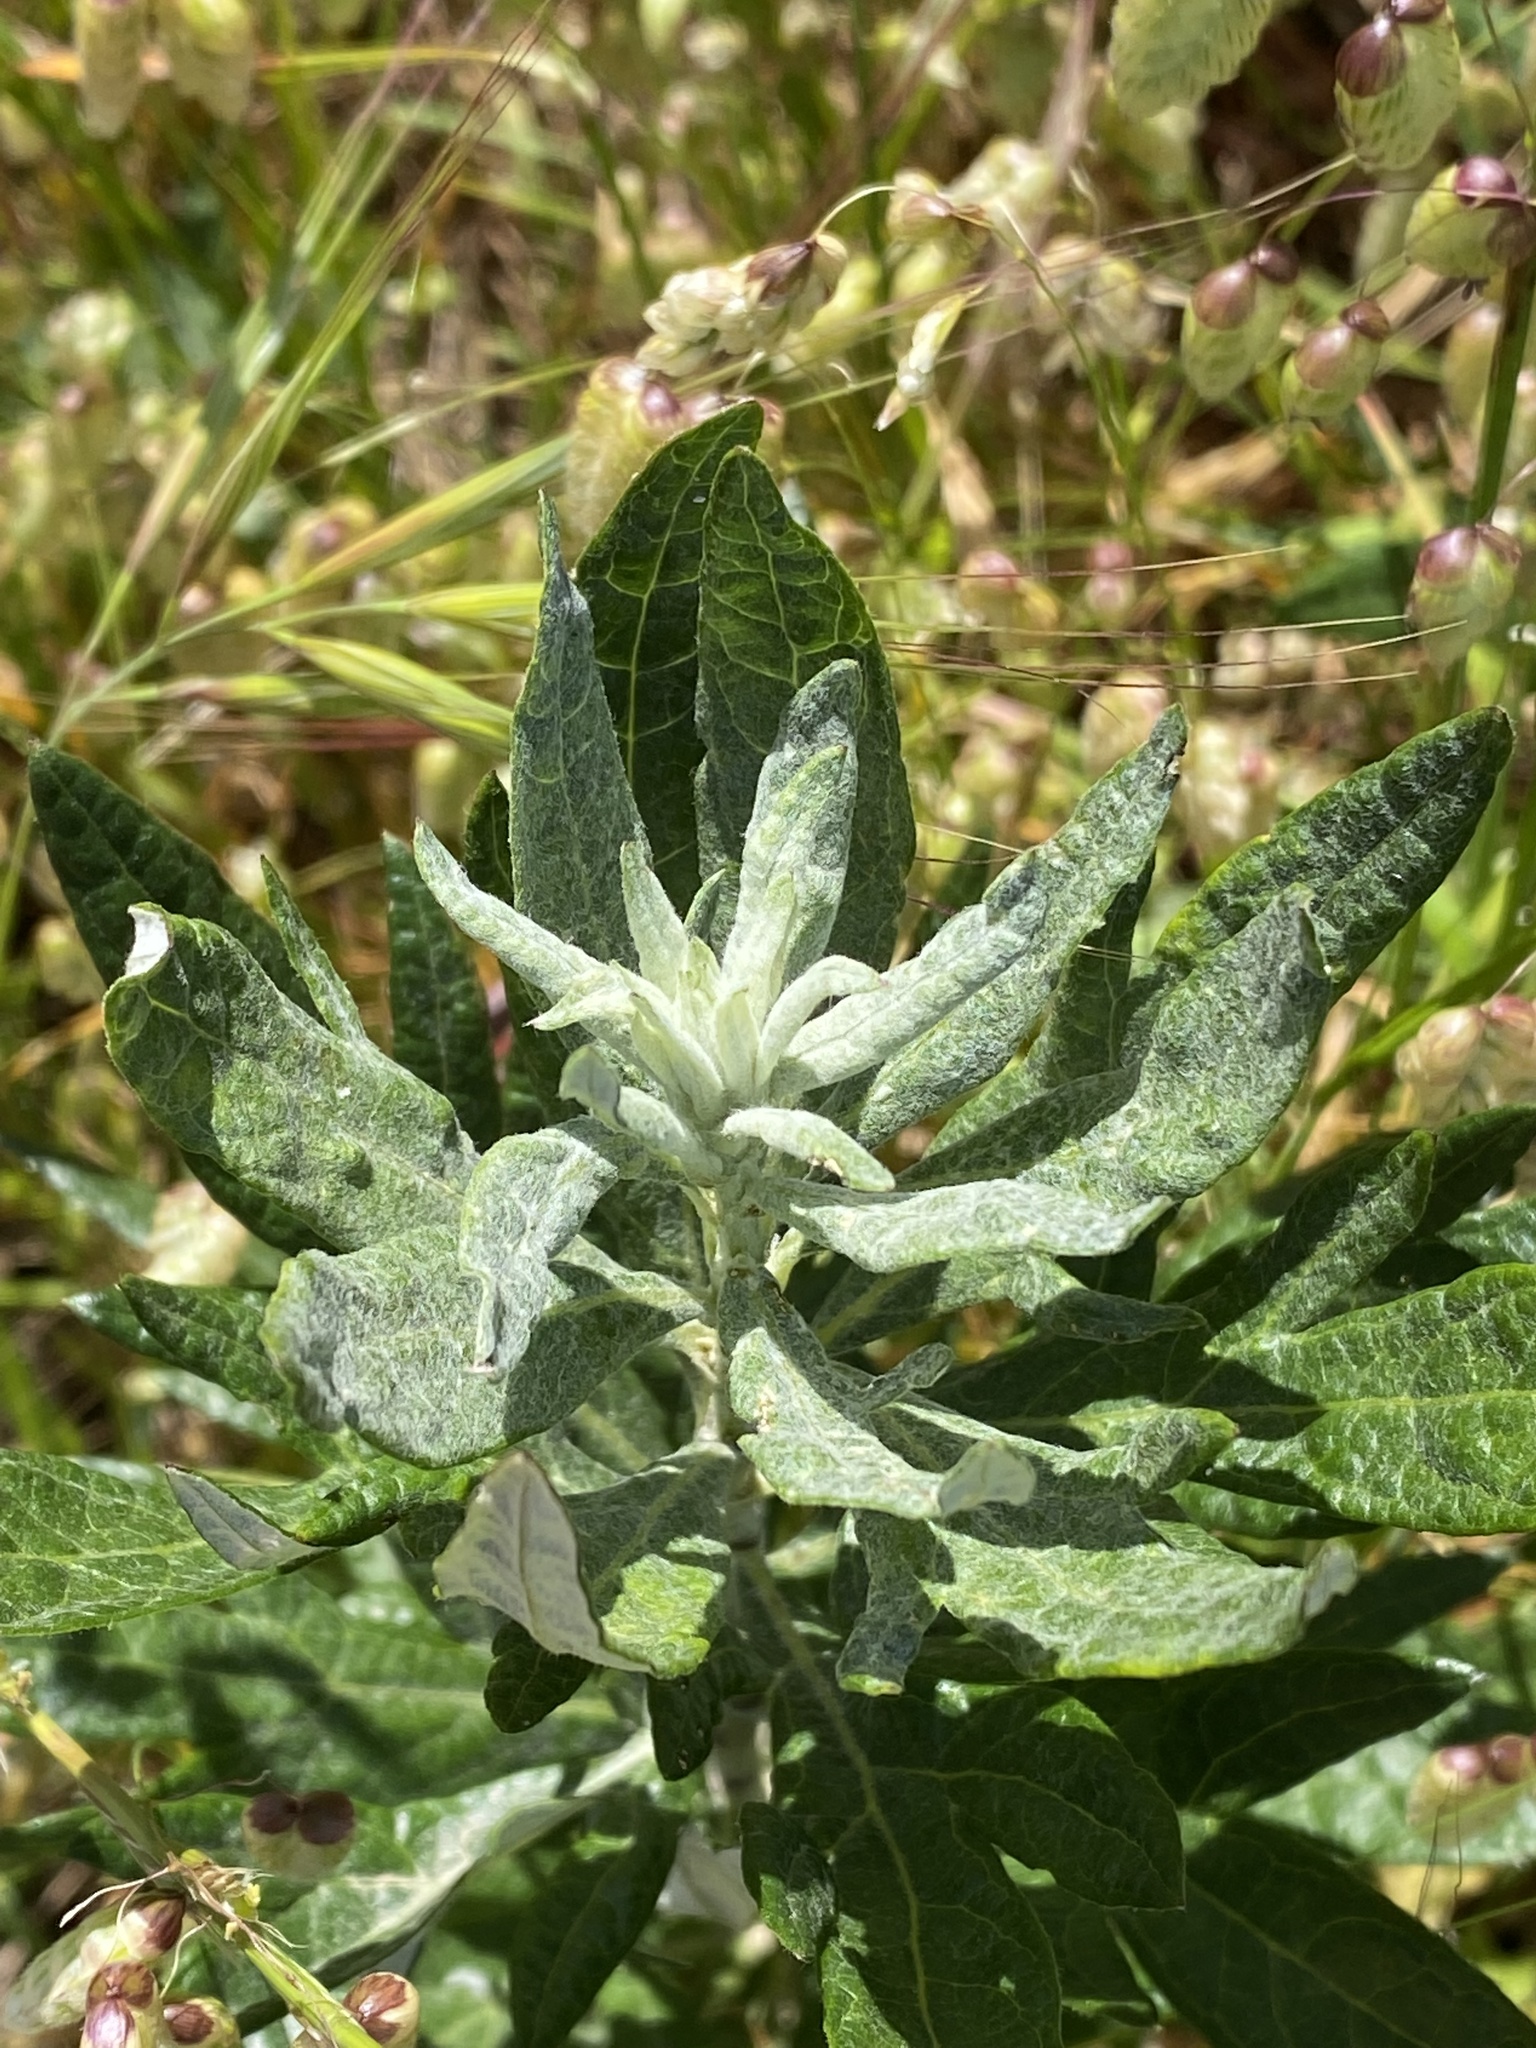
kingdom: Plantae
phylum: Tracheophyta
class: Magnoliopsida
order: Asterales
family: Asteraceae
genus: Artemisia
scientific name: Artemisia douglasiana
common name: Northwest mugwort
